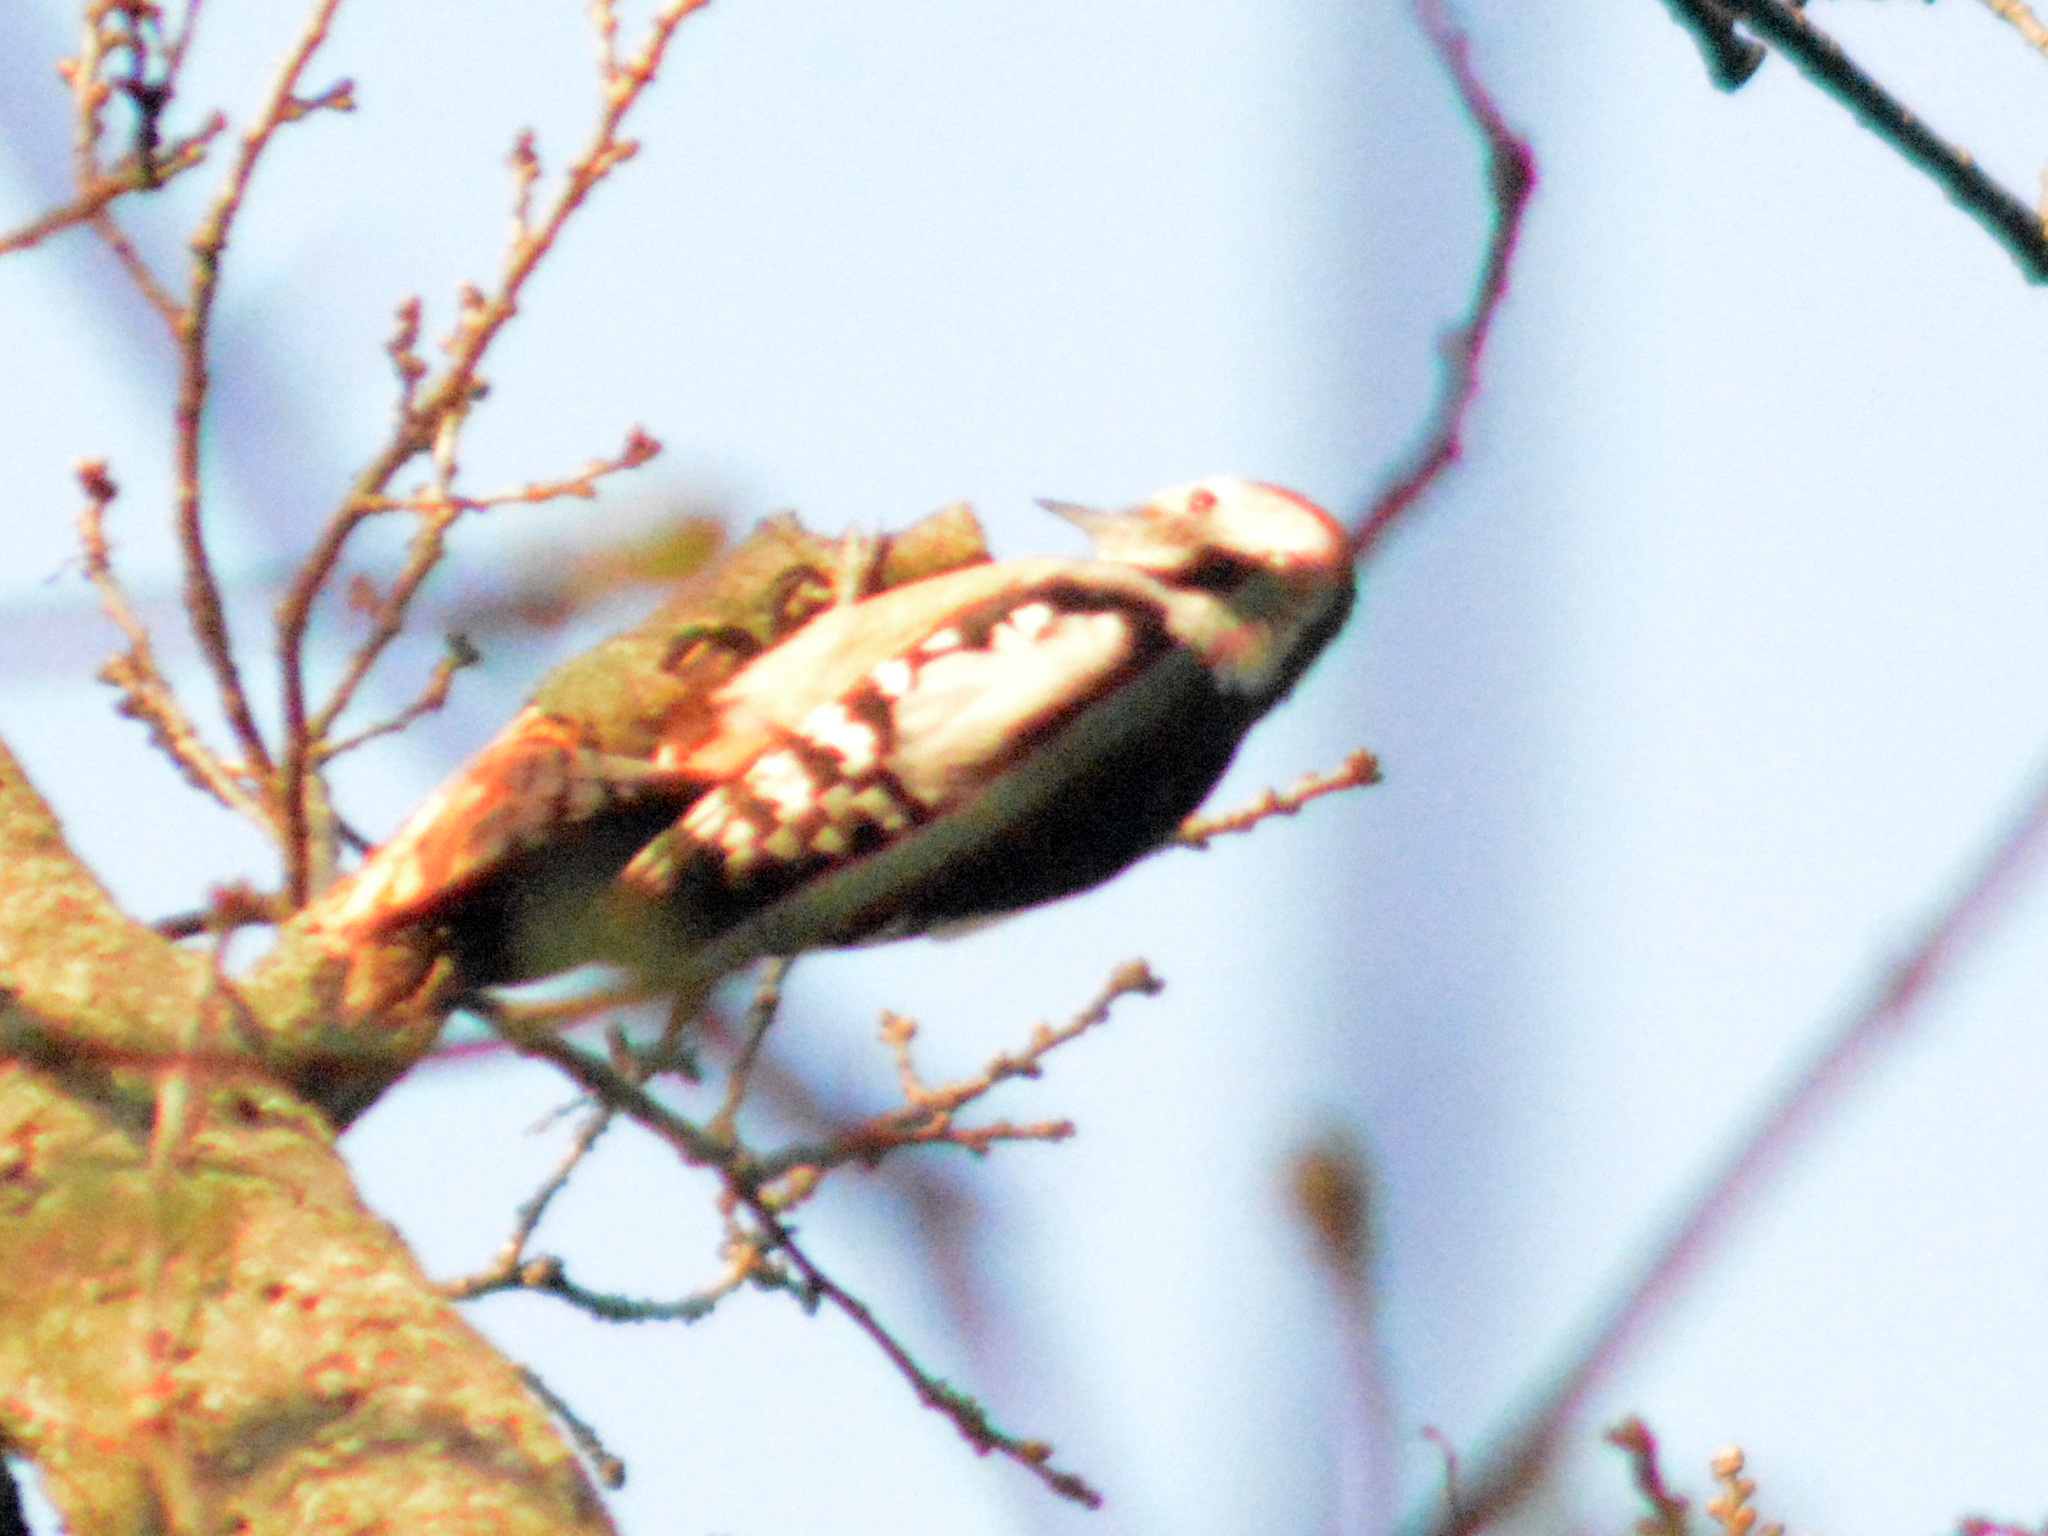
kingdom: Animalia
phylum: Chordata
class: Aves
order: Piciformes
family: Picidae
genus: Dendrocoptes
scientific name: Dendrocoptes medius
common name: Middle spotted woodpecker
